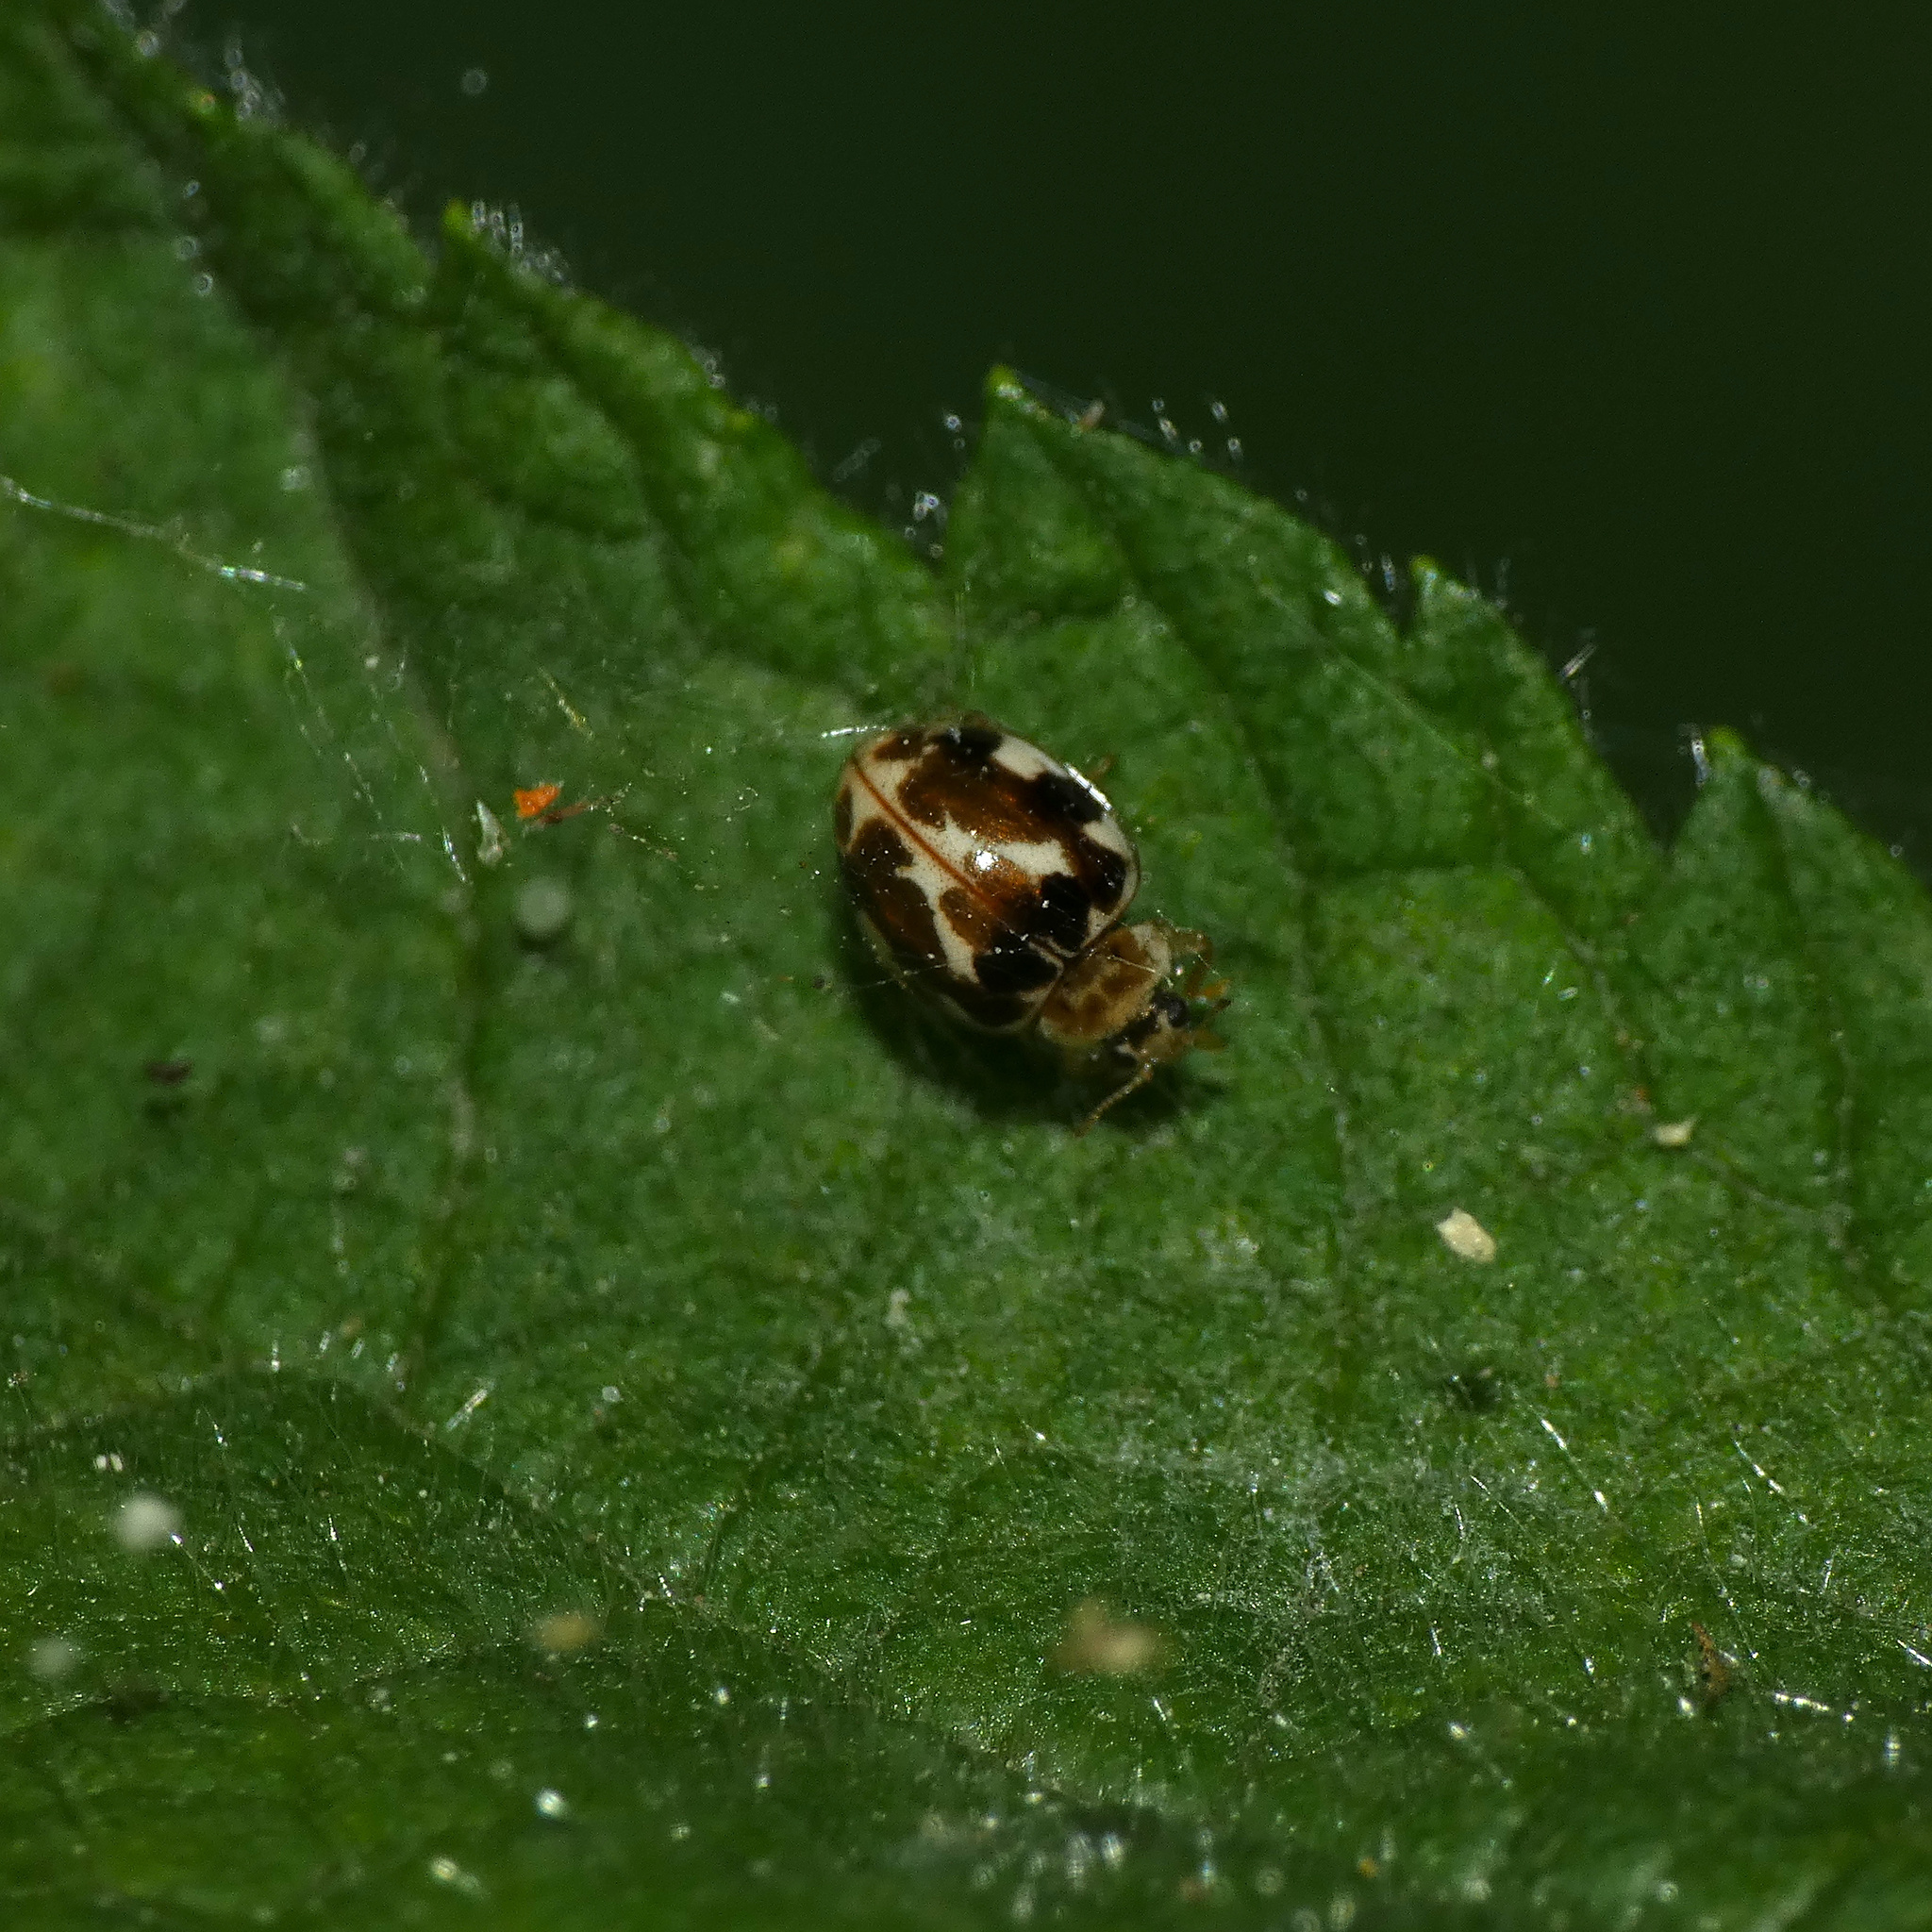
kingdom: Animalia
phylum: Arthropoda
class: Insecta
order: Coleoptera
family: Coccinellidae
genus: Psyllobora
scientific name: Psyllobora vigintimaculata
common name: Ladybird beetle
